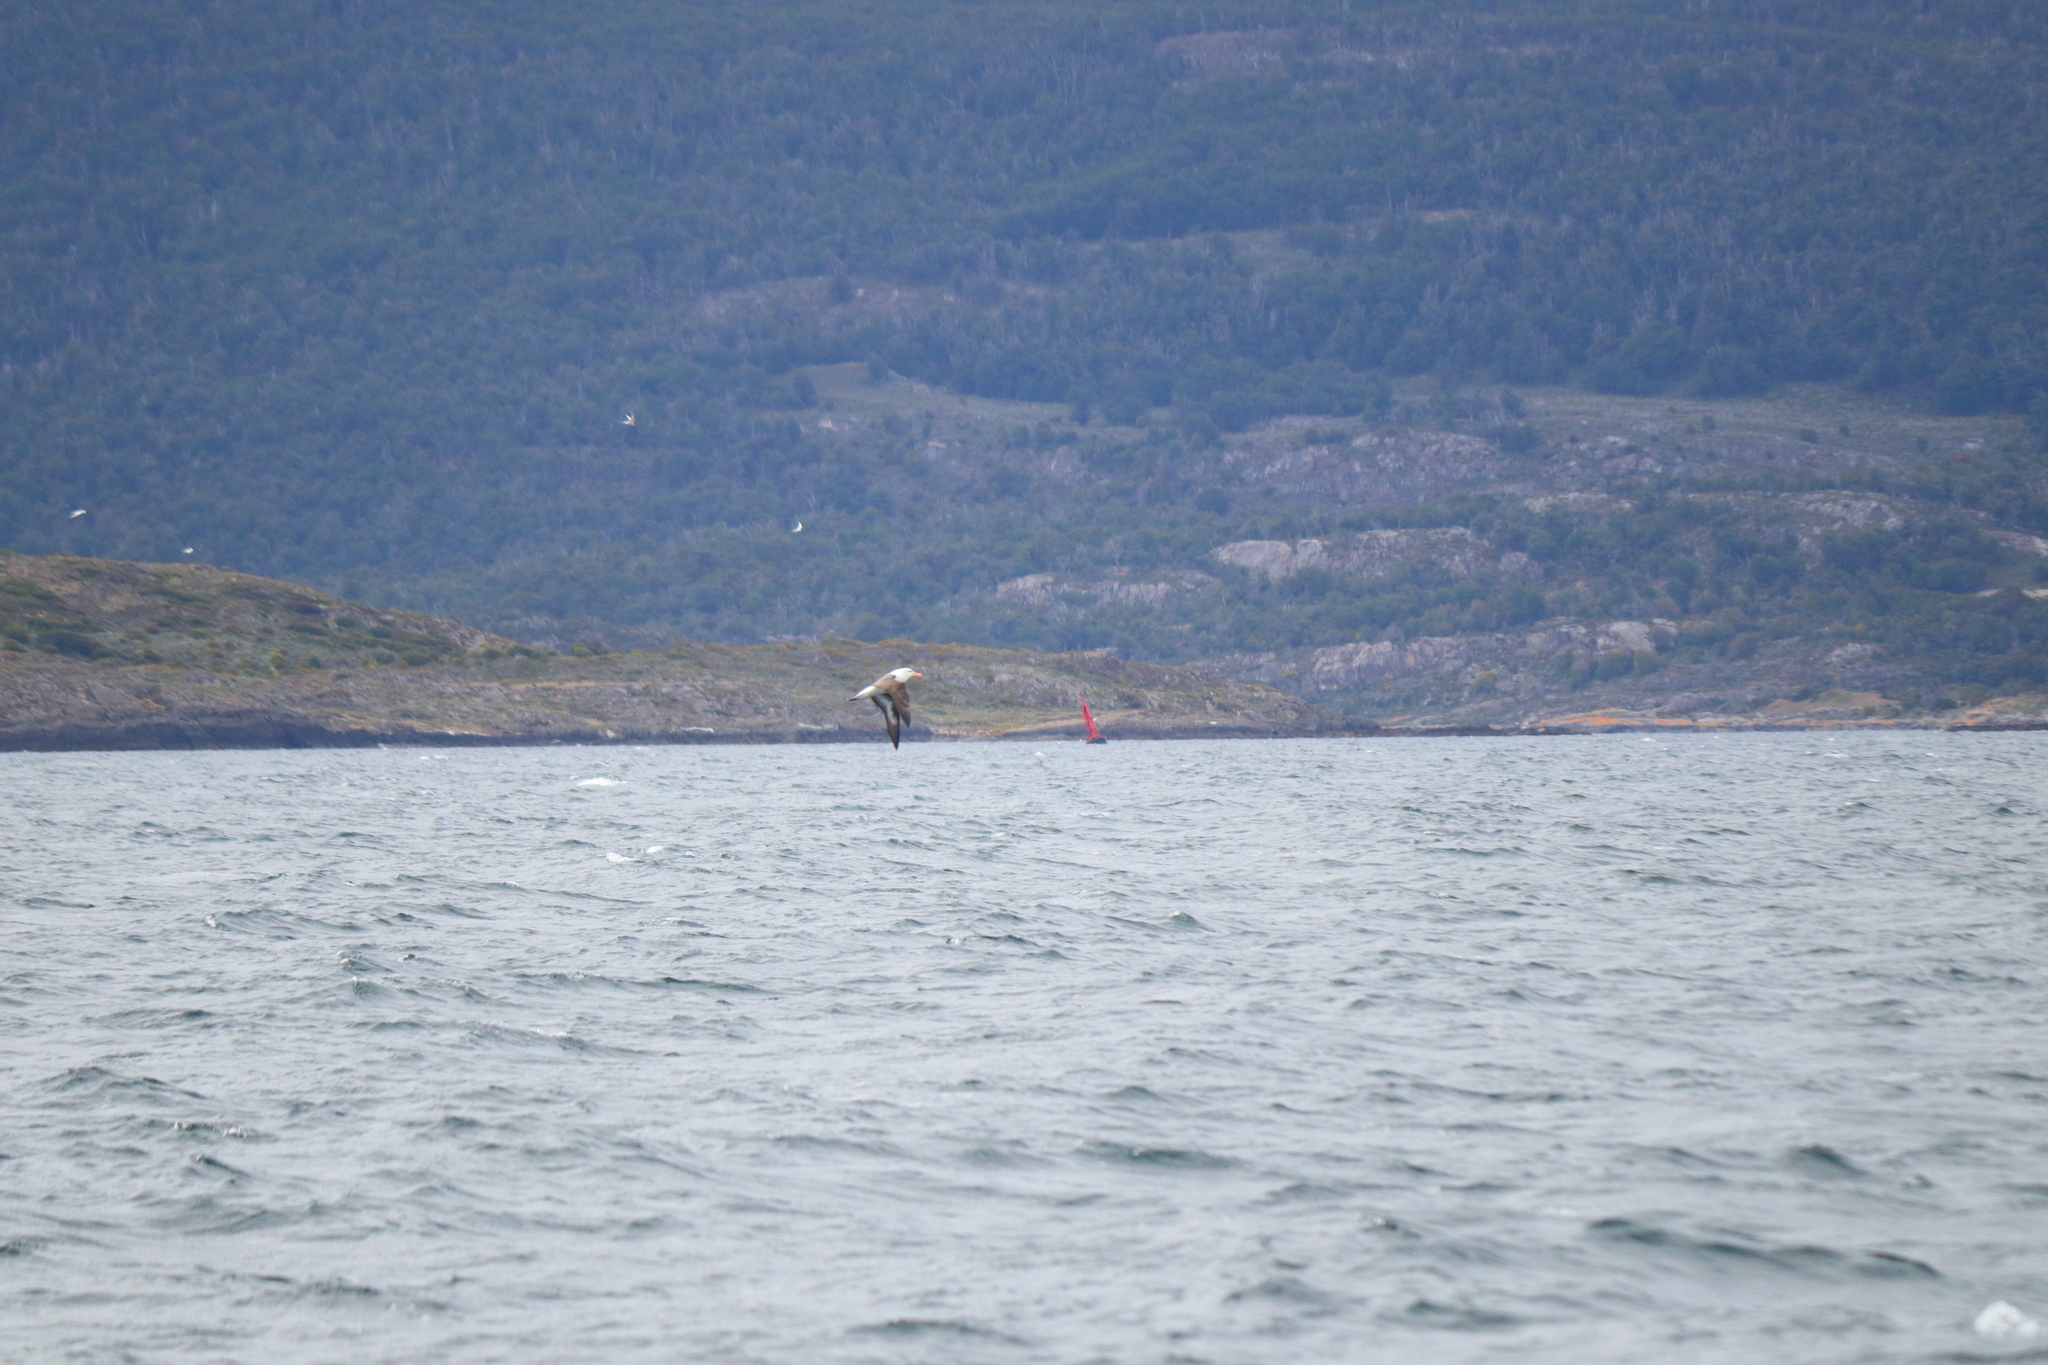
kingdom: Animalia
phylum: Chordata
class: Aves
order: Procellariiformes
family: Diomedeidae
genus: Thalassarche
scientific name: Thalassarche melanophris
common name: Black-browed albatross
